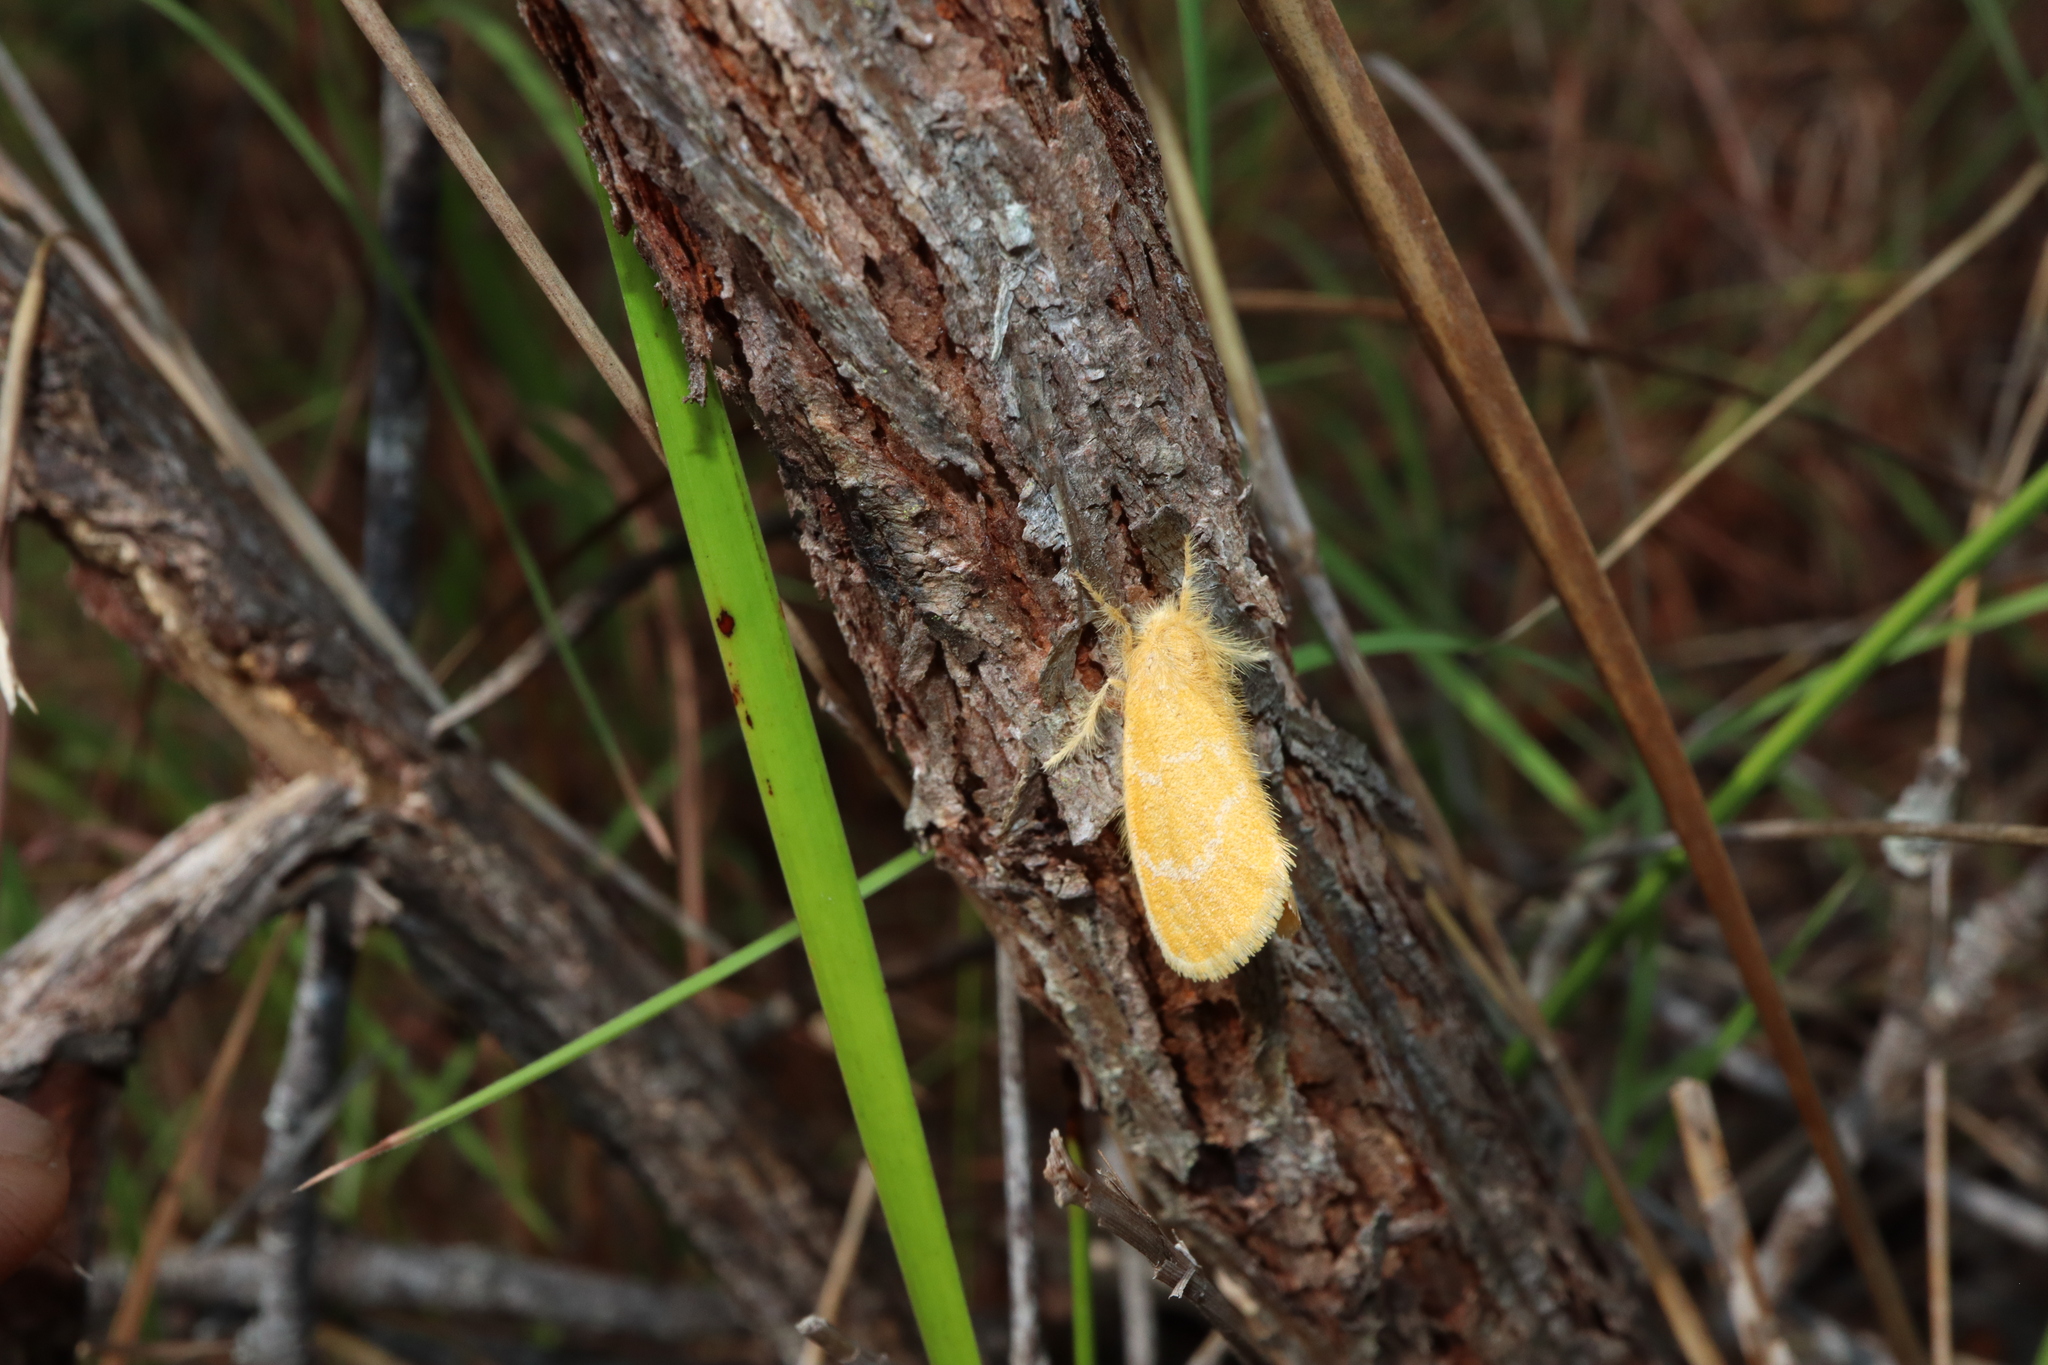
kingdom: Animalia
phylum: Arthropoda
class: Insecta
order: Lepidoptera
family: Erebidae
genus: Euproctis
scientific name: Euproctis lutea
